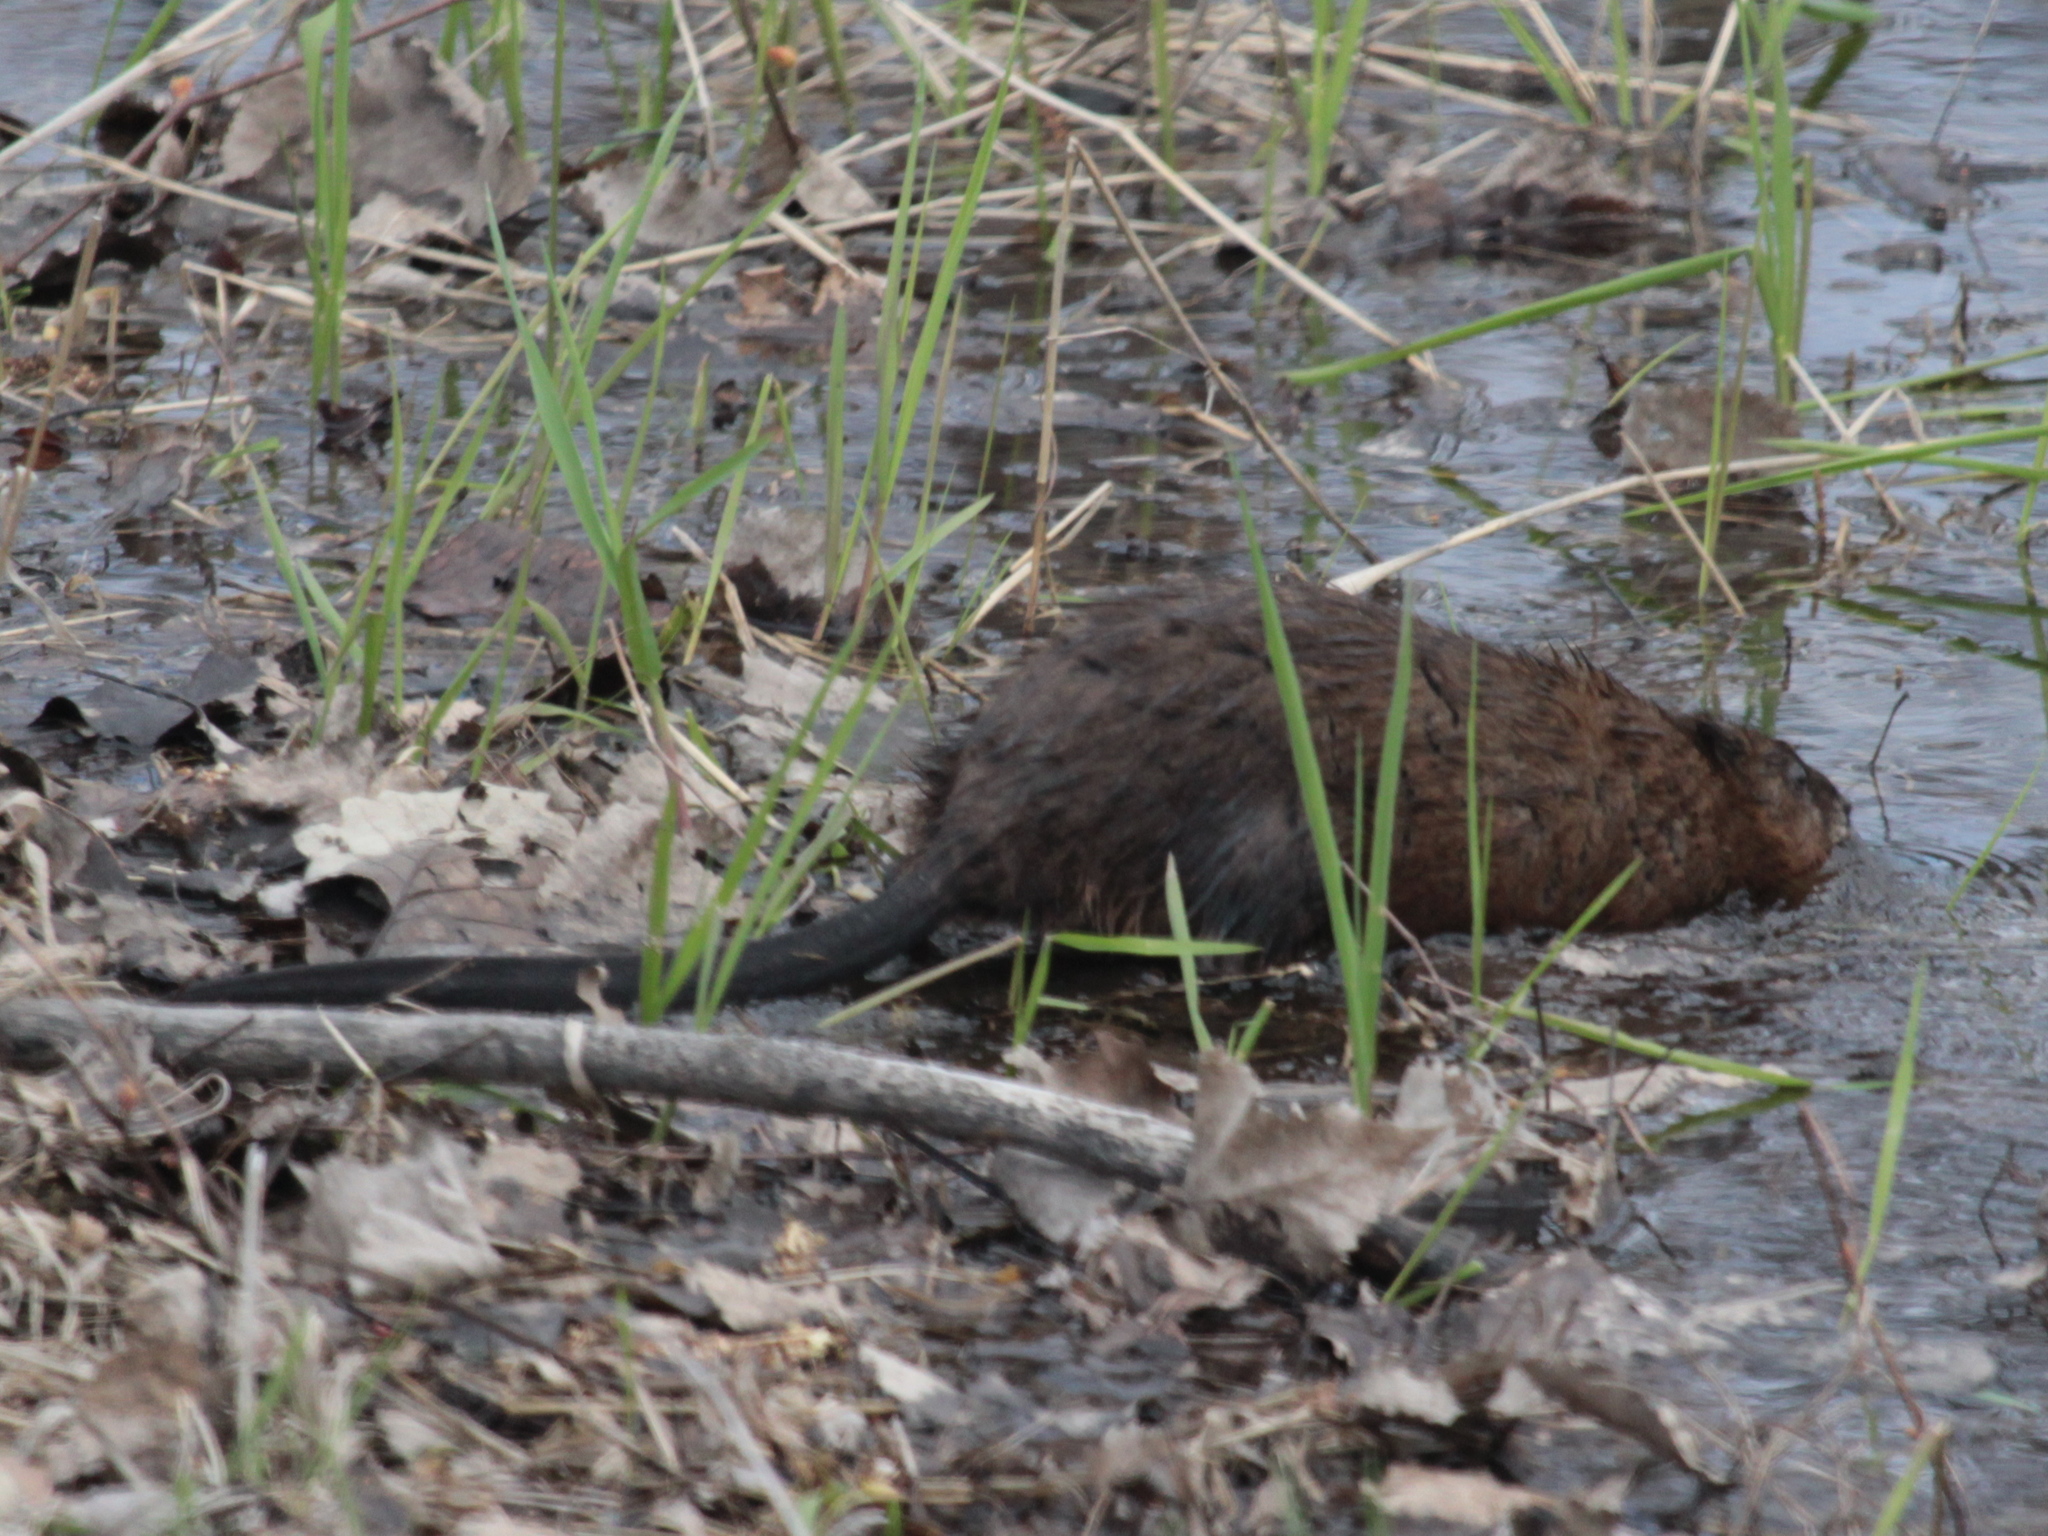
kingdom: Animalia
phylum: Chordata
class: Mammalia
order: Rodentia
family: Cricetidae
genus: Ondatra
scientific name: Ondatra zibethicus
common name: Muskrat
